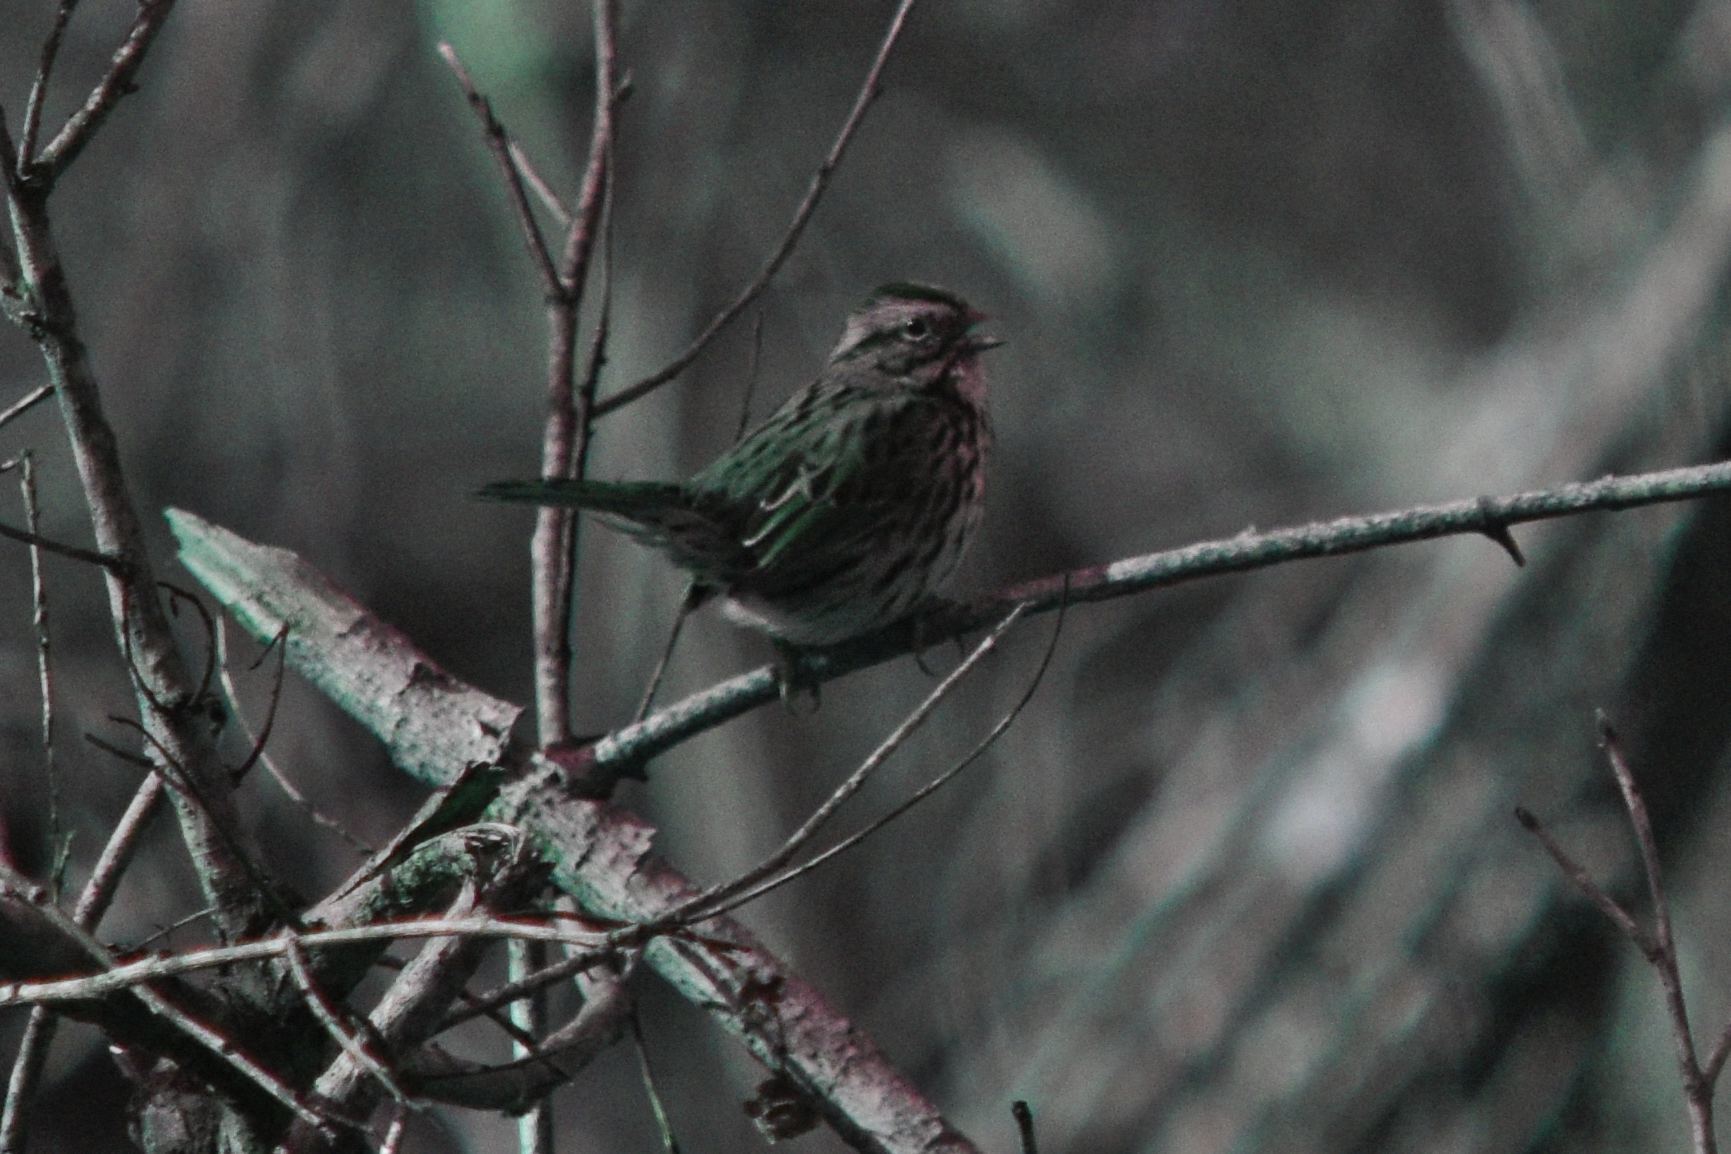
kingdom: Animalia
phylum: Chordata
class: Aves
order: Passeriformes
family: Passerellidae
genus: Melospiza
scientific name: Melospiza melodia
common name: Song sparrow
